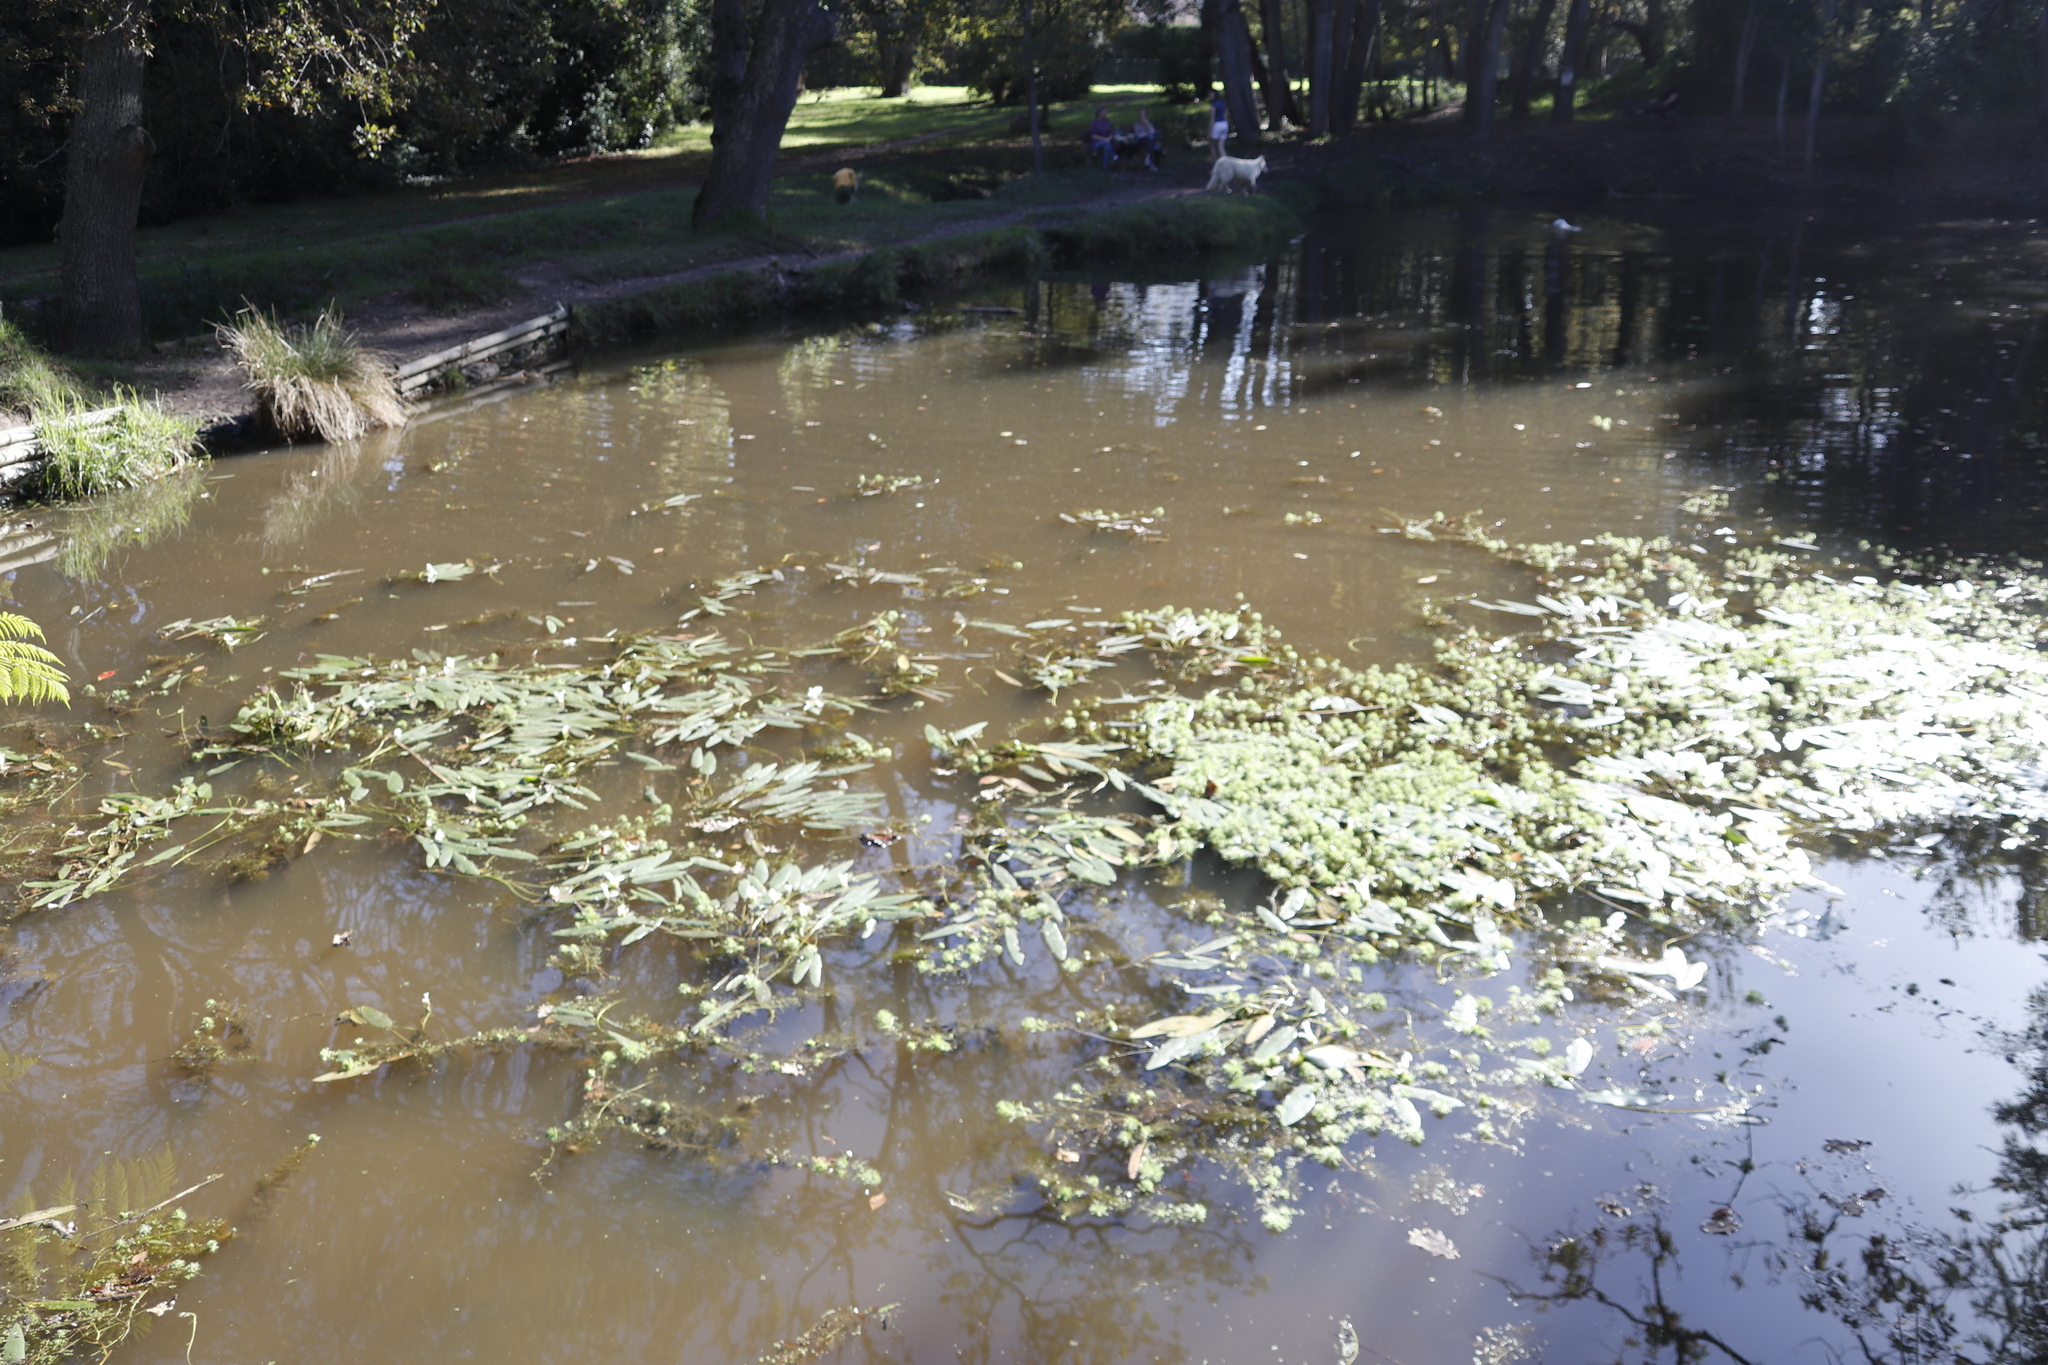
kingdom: Plantae
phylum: Tracheophyta
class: Liliopsida
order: Alismatales
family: Aponogetonaceae
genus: Aponogeton
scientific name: Aponogeton distachyos
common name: Cape-pondweed
